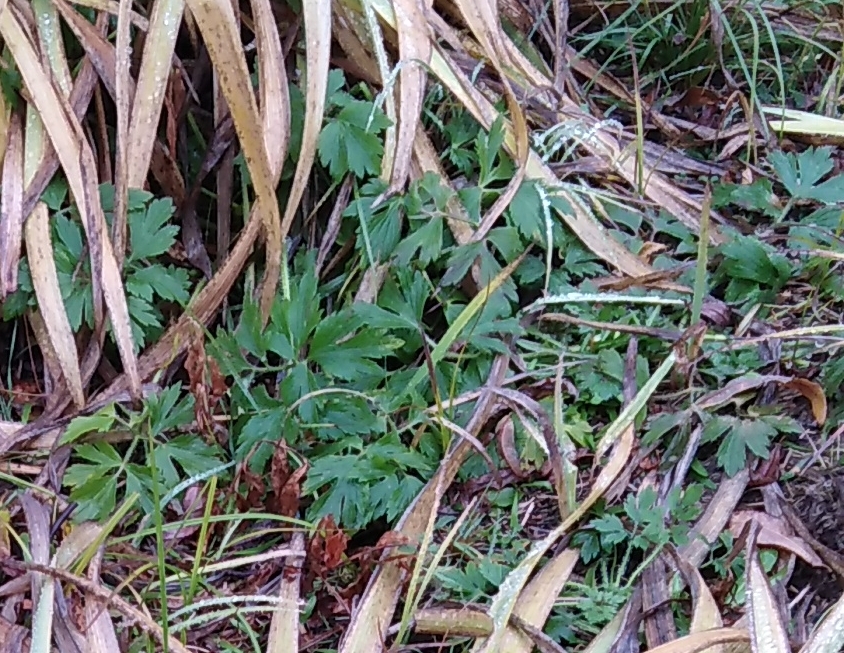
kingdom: Plantae
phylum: Tracheophyta
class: Magnoliopsida
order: Ranunculales
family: Ranunculaceae
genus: Ranunculus
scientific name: Ranunculus repens
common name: Creeping buttercup
